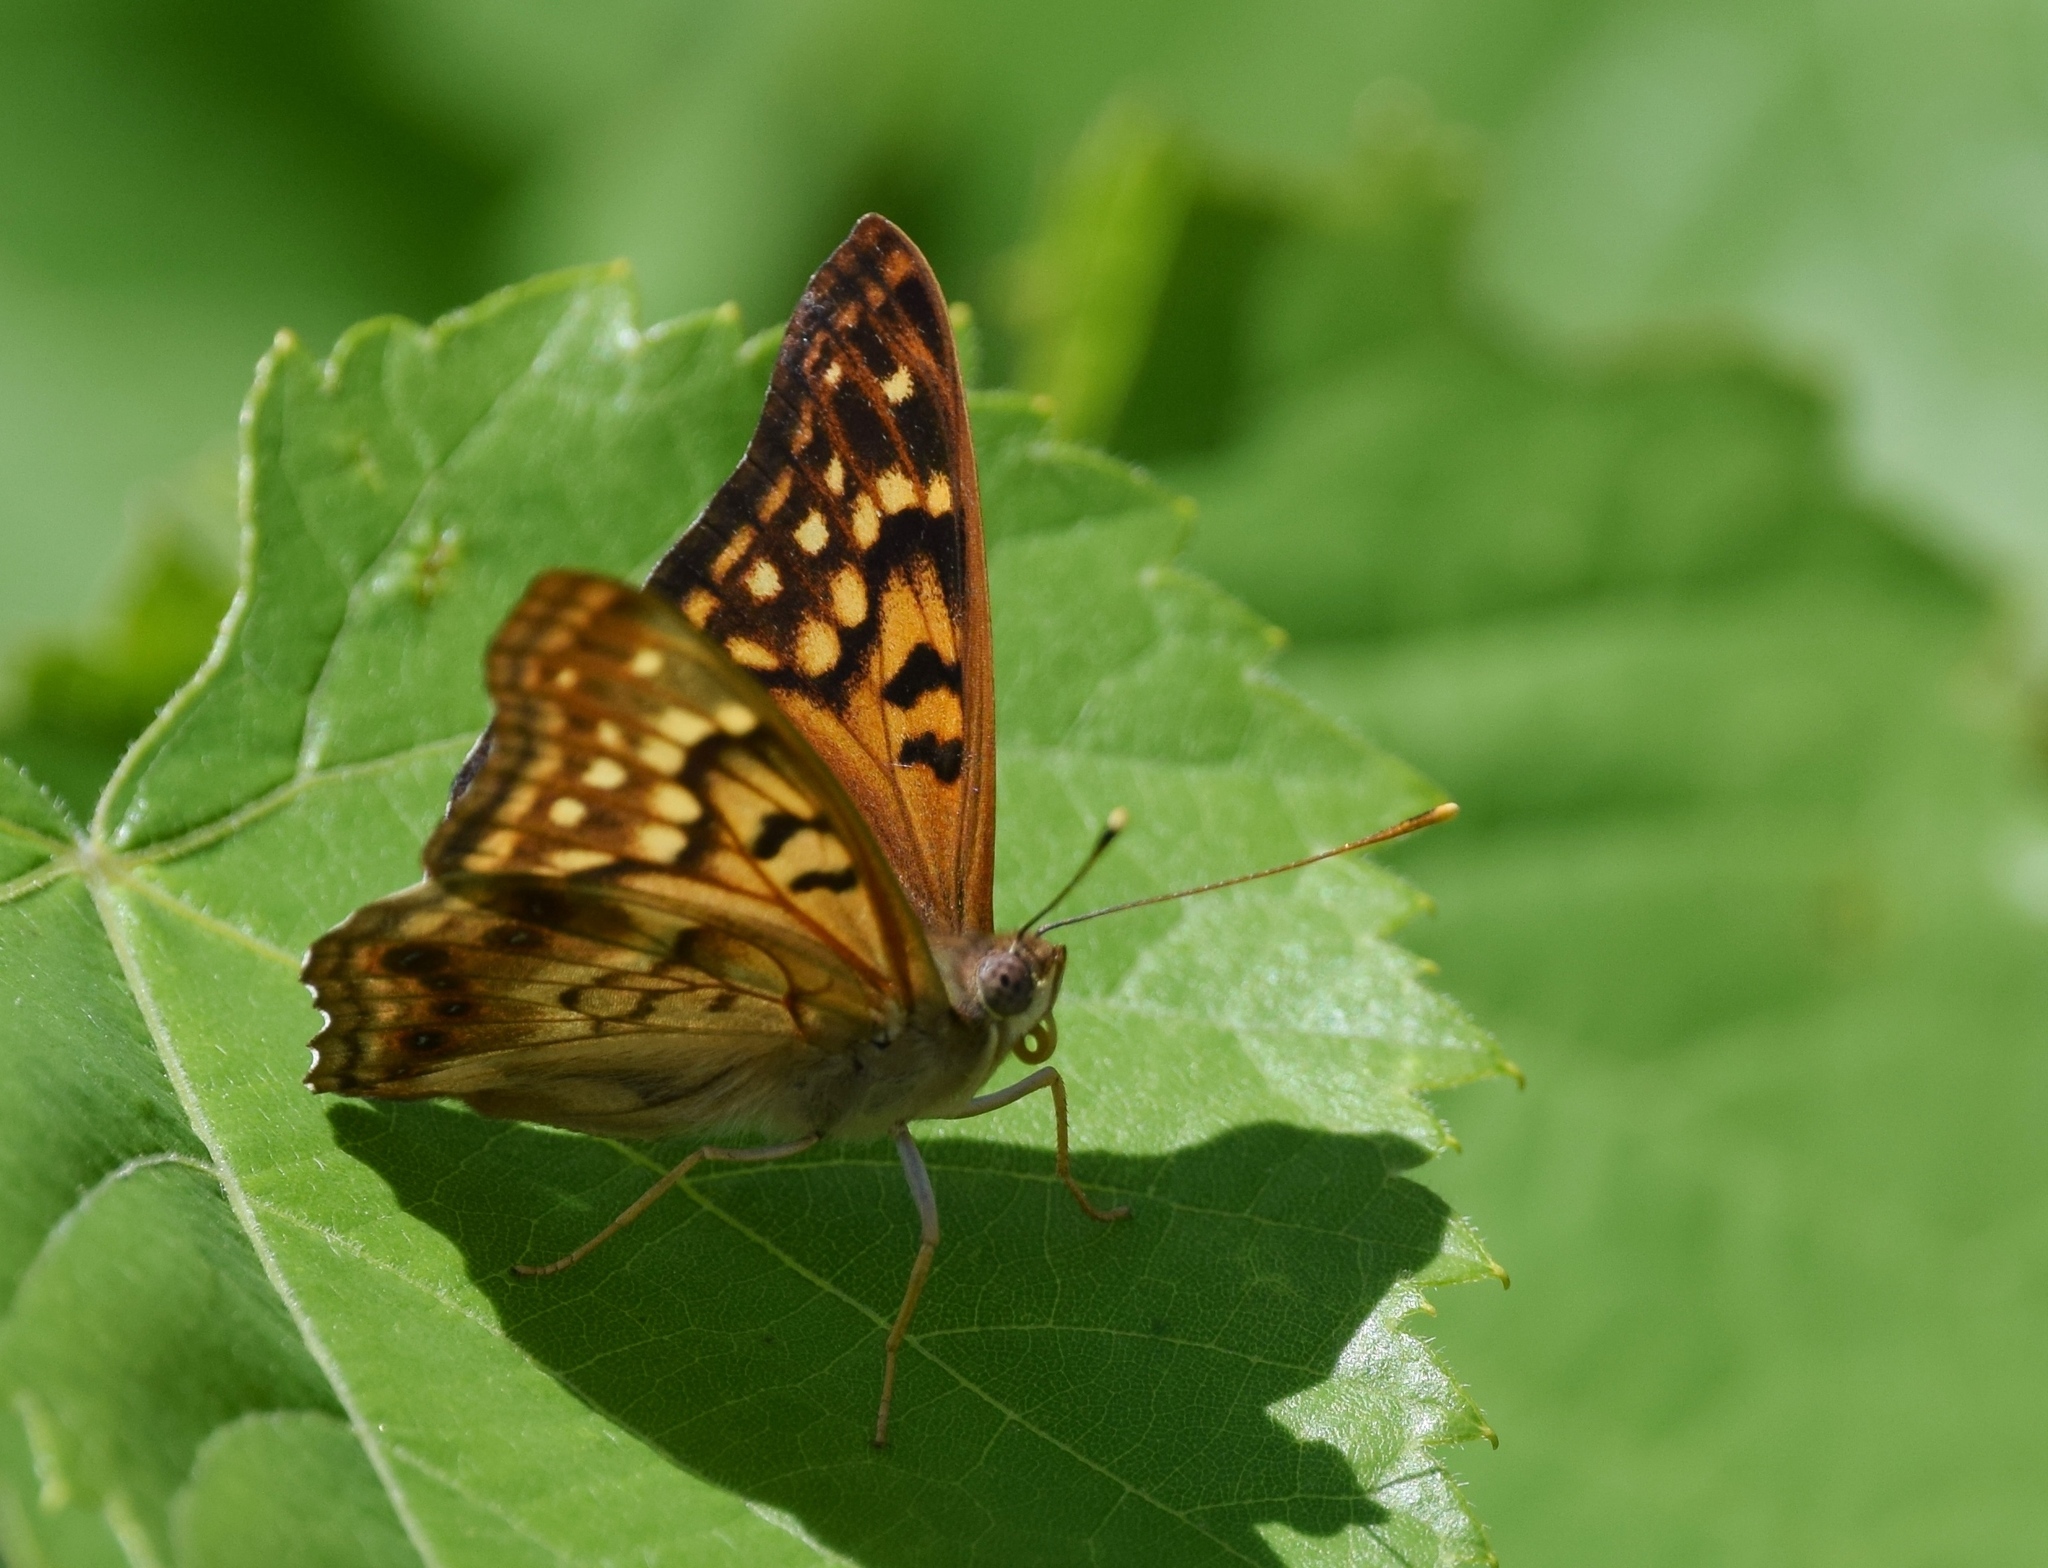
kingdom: Animalia
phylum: Arthropoda
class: Insecta
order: Lepidoptera
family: Nymphalidae
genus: Asterocampa
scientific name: Asterocampa clyton
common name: Tawny emperor
